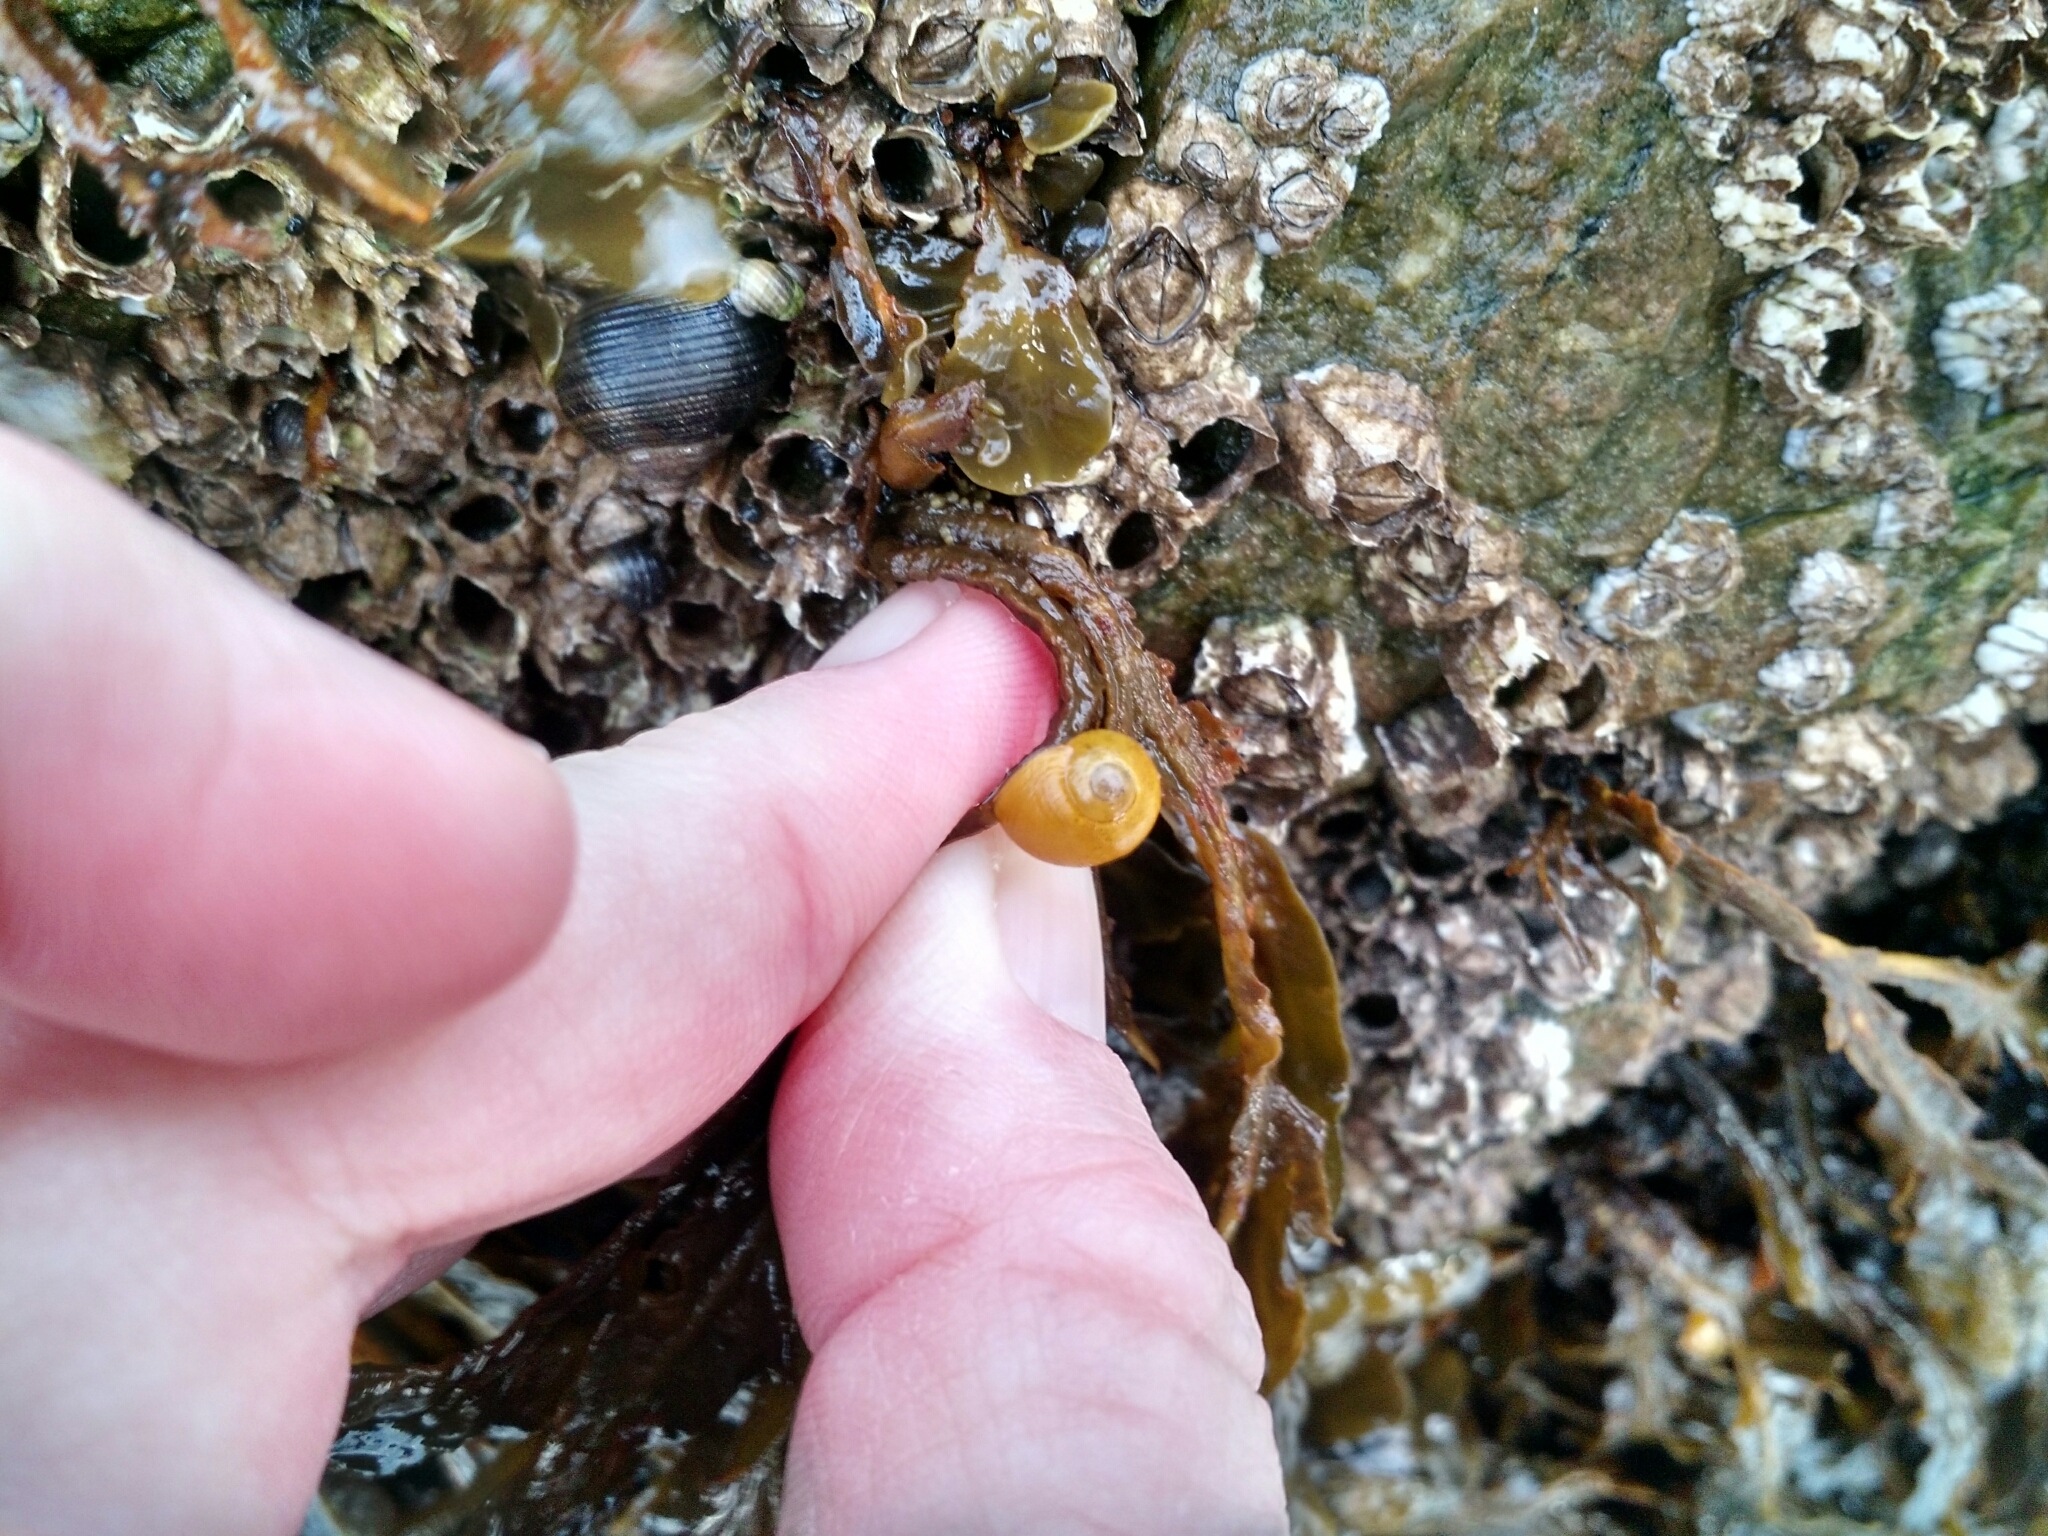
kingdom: Animalia
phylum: Mollusca
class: Gastropoda
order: Littorinimorpha
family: Littorinidae
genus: Littorina
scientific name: Littorina obtusata
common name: Flat periwinkle
